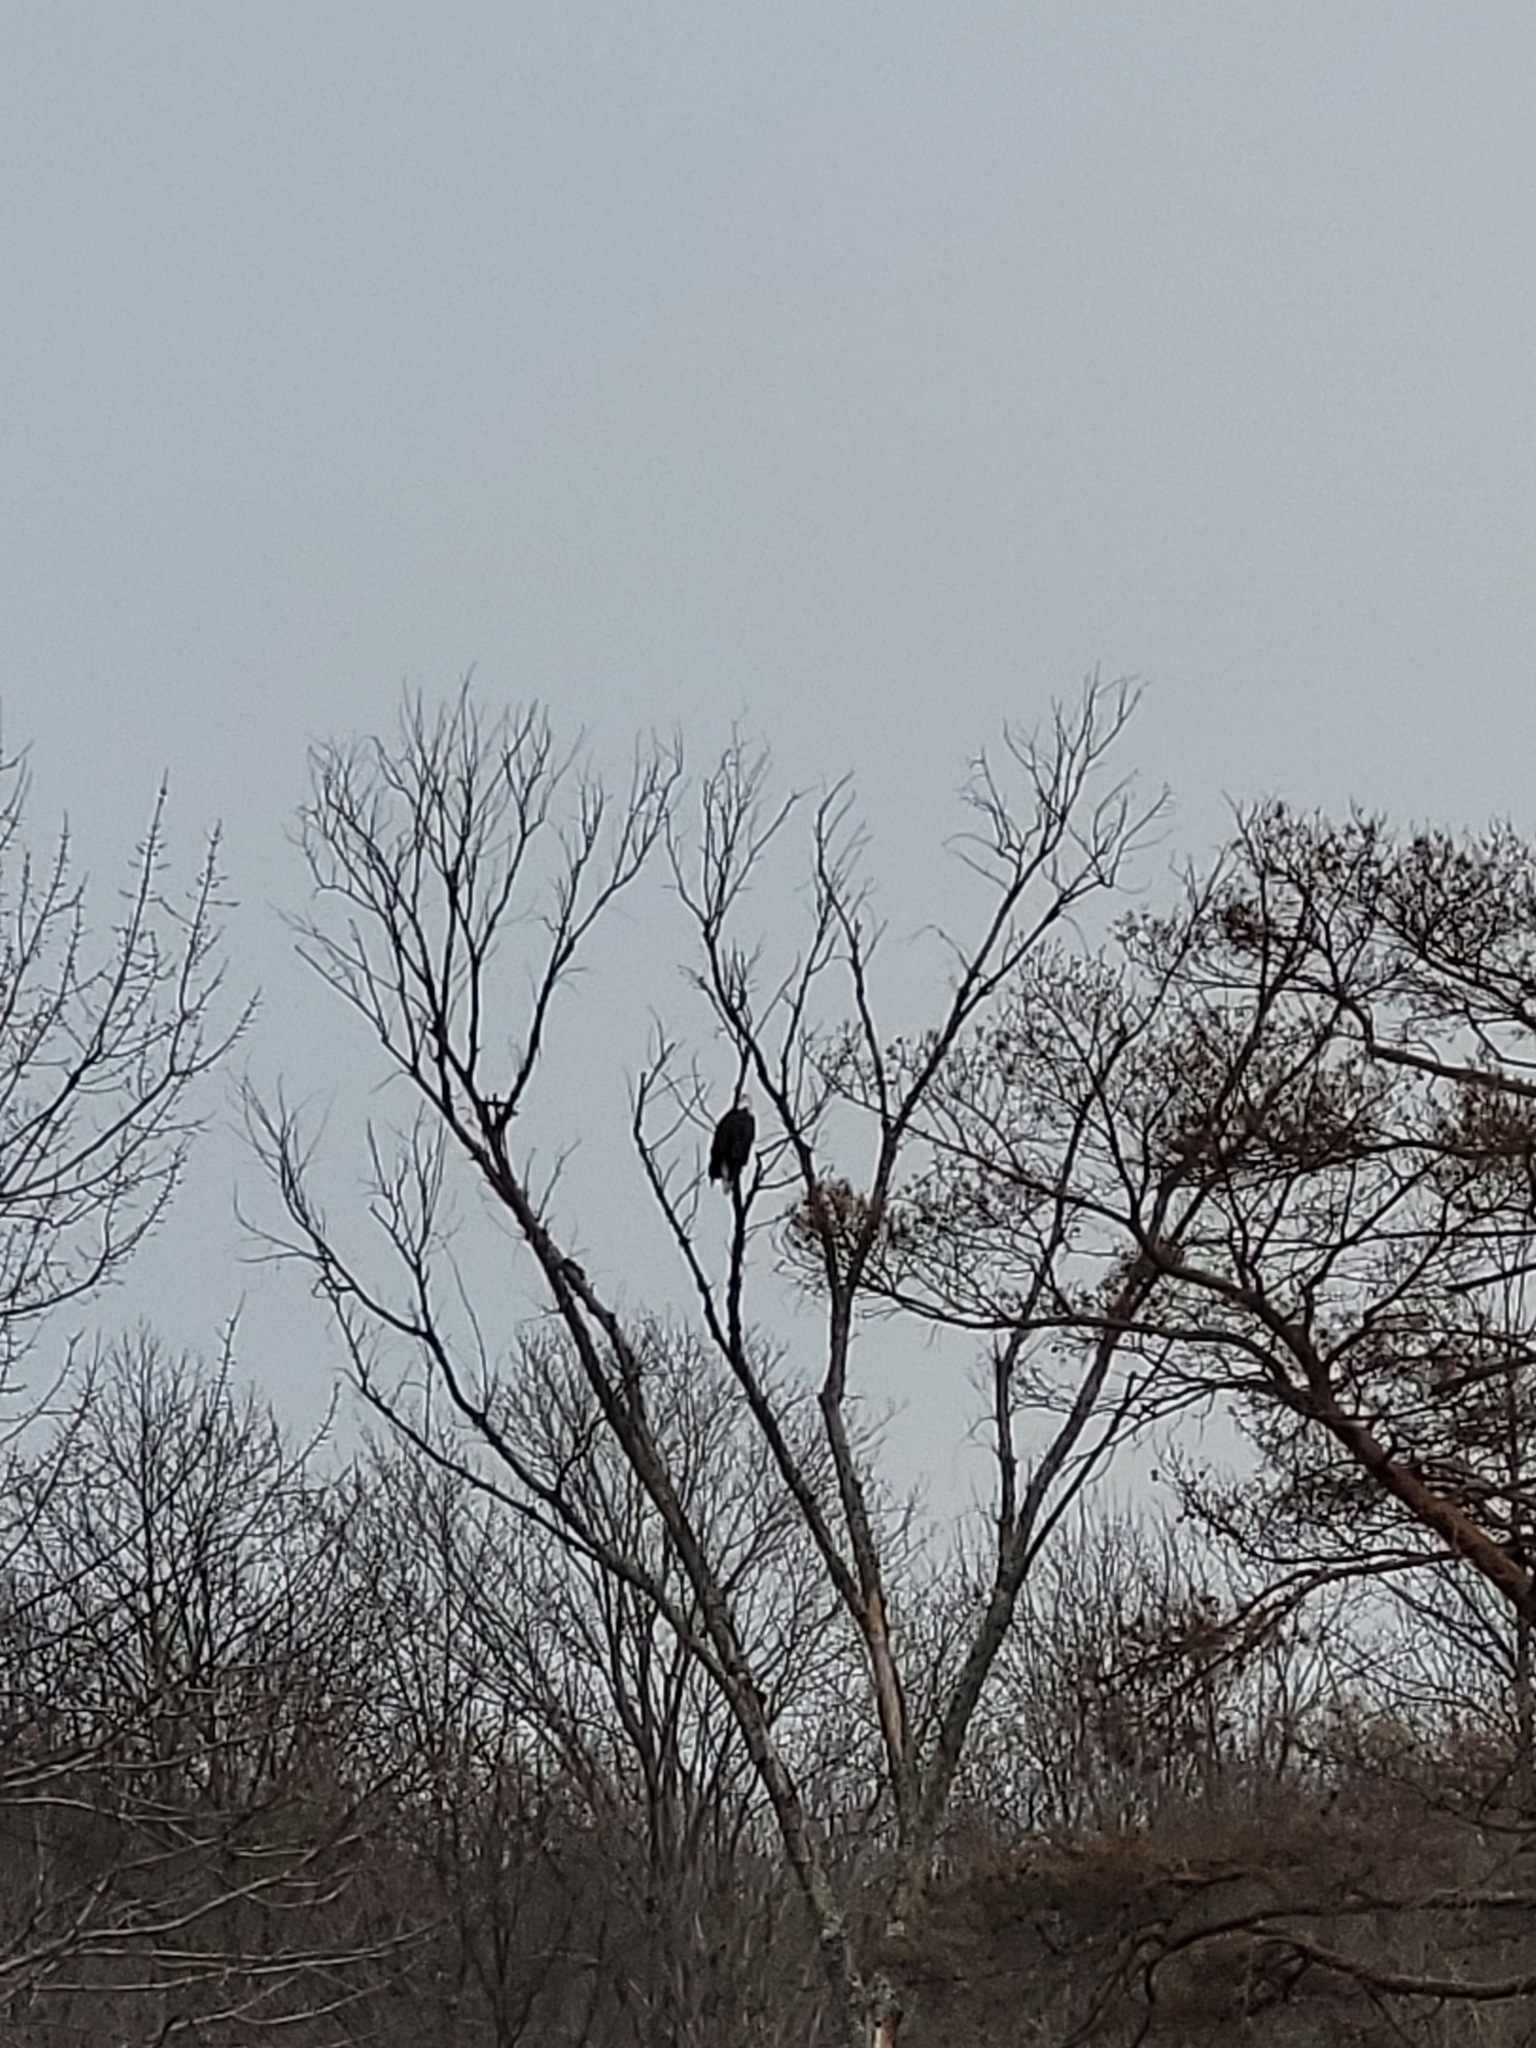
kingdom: Animalia
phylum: Chordata
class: Aves
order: Accipitriformes
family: Accipitridae
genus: Haliaeetus
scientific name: Haliaeetus leucocephalus
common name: Bald eagle
